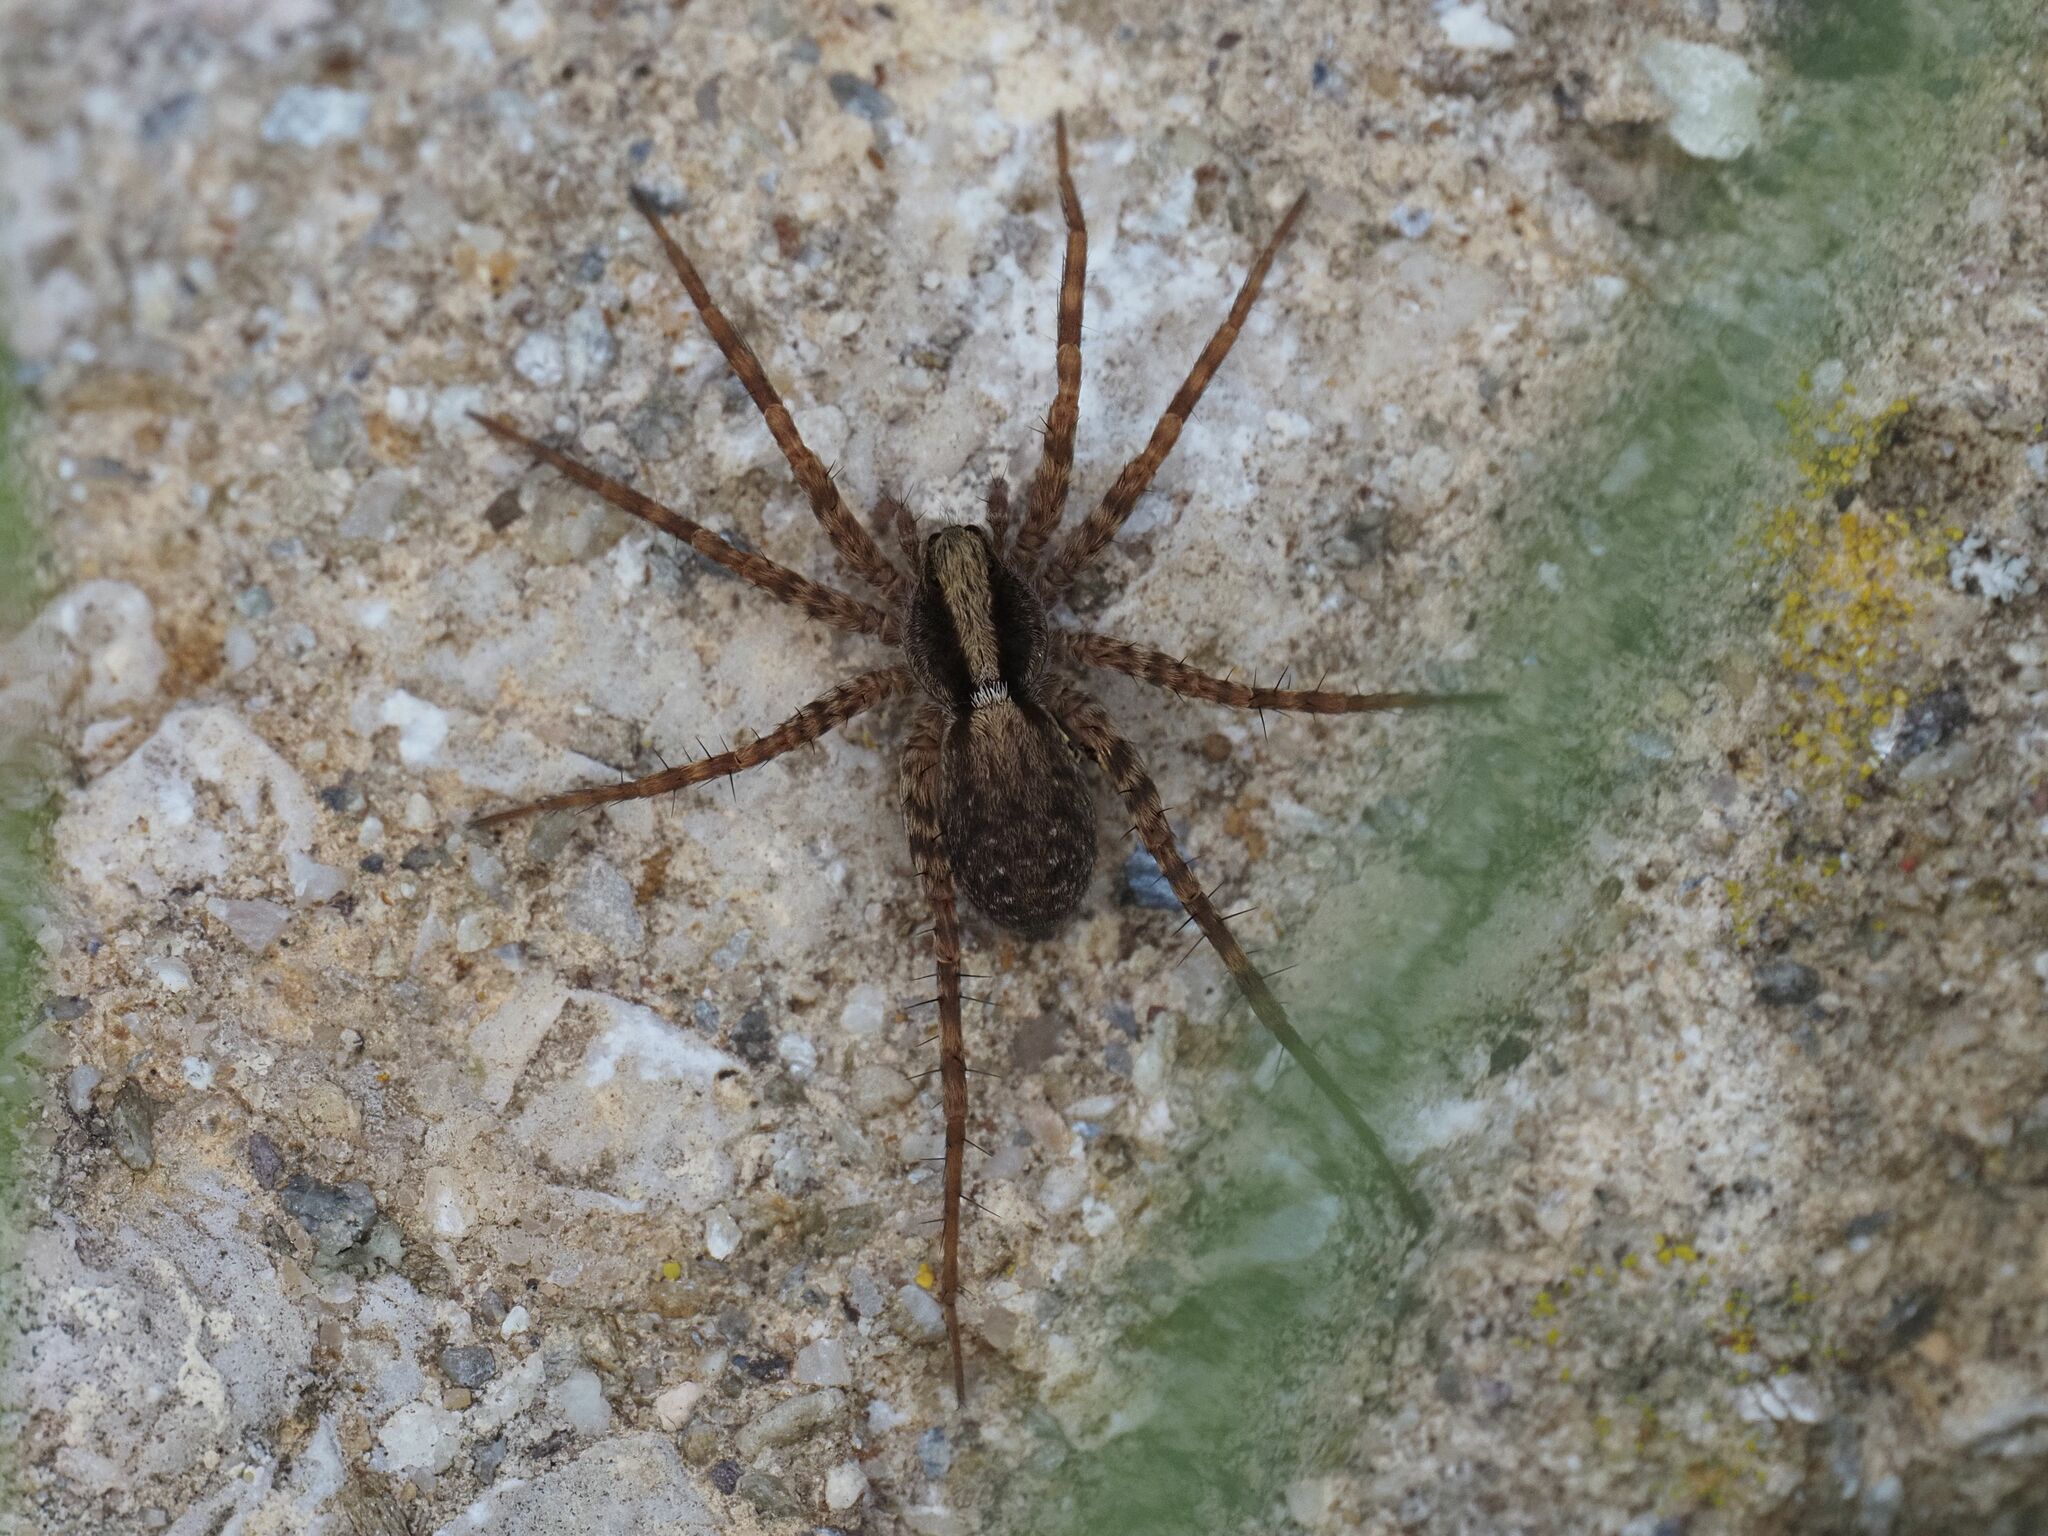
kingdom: Animalia
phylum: Arthropoda
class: Arachnida
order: Araneae
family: Lycosidae
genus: Pardosa
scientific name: Pardosa
